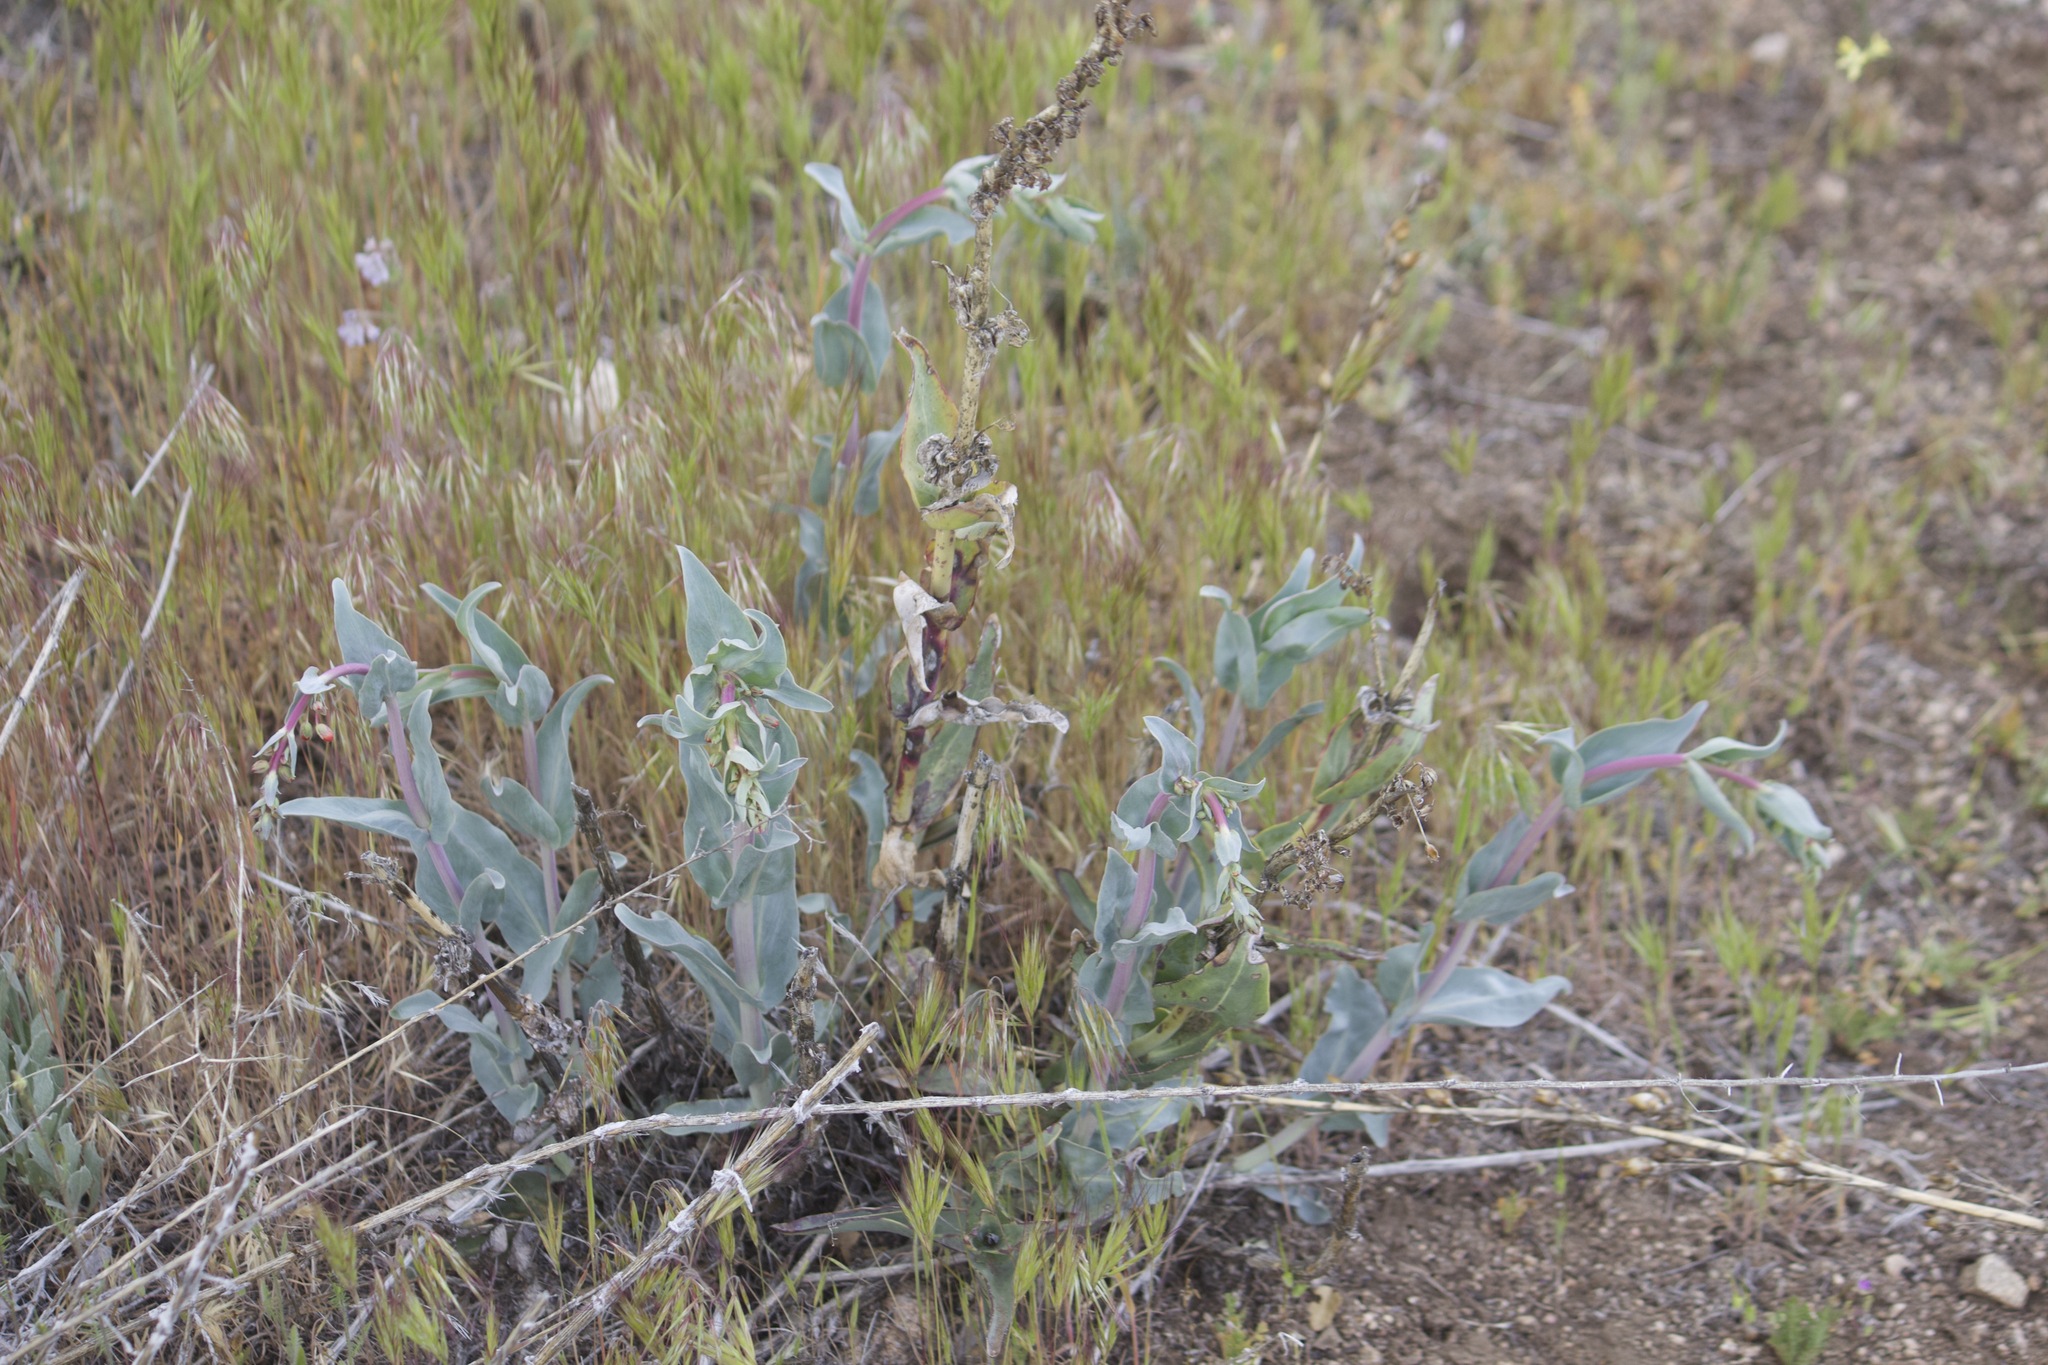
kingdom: Plantae
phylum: Tracheophyta
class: Magnoliopsida
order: Lamiales
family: Plantaginaceae
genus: Penstemon
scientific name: Penstemon centranthifolius
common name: Scarlet bugler
